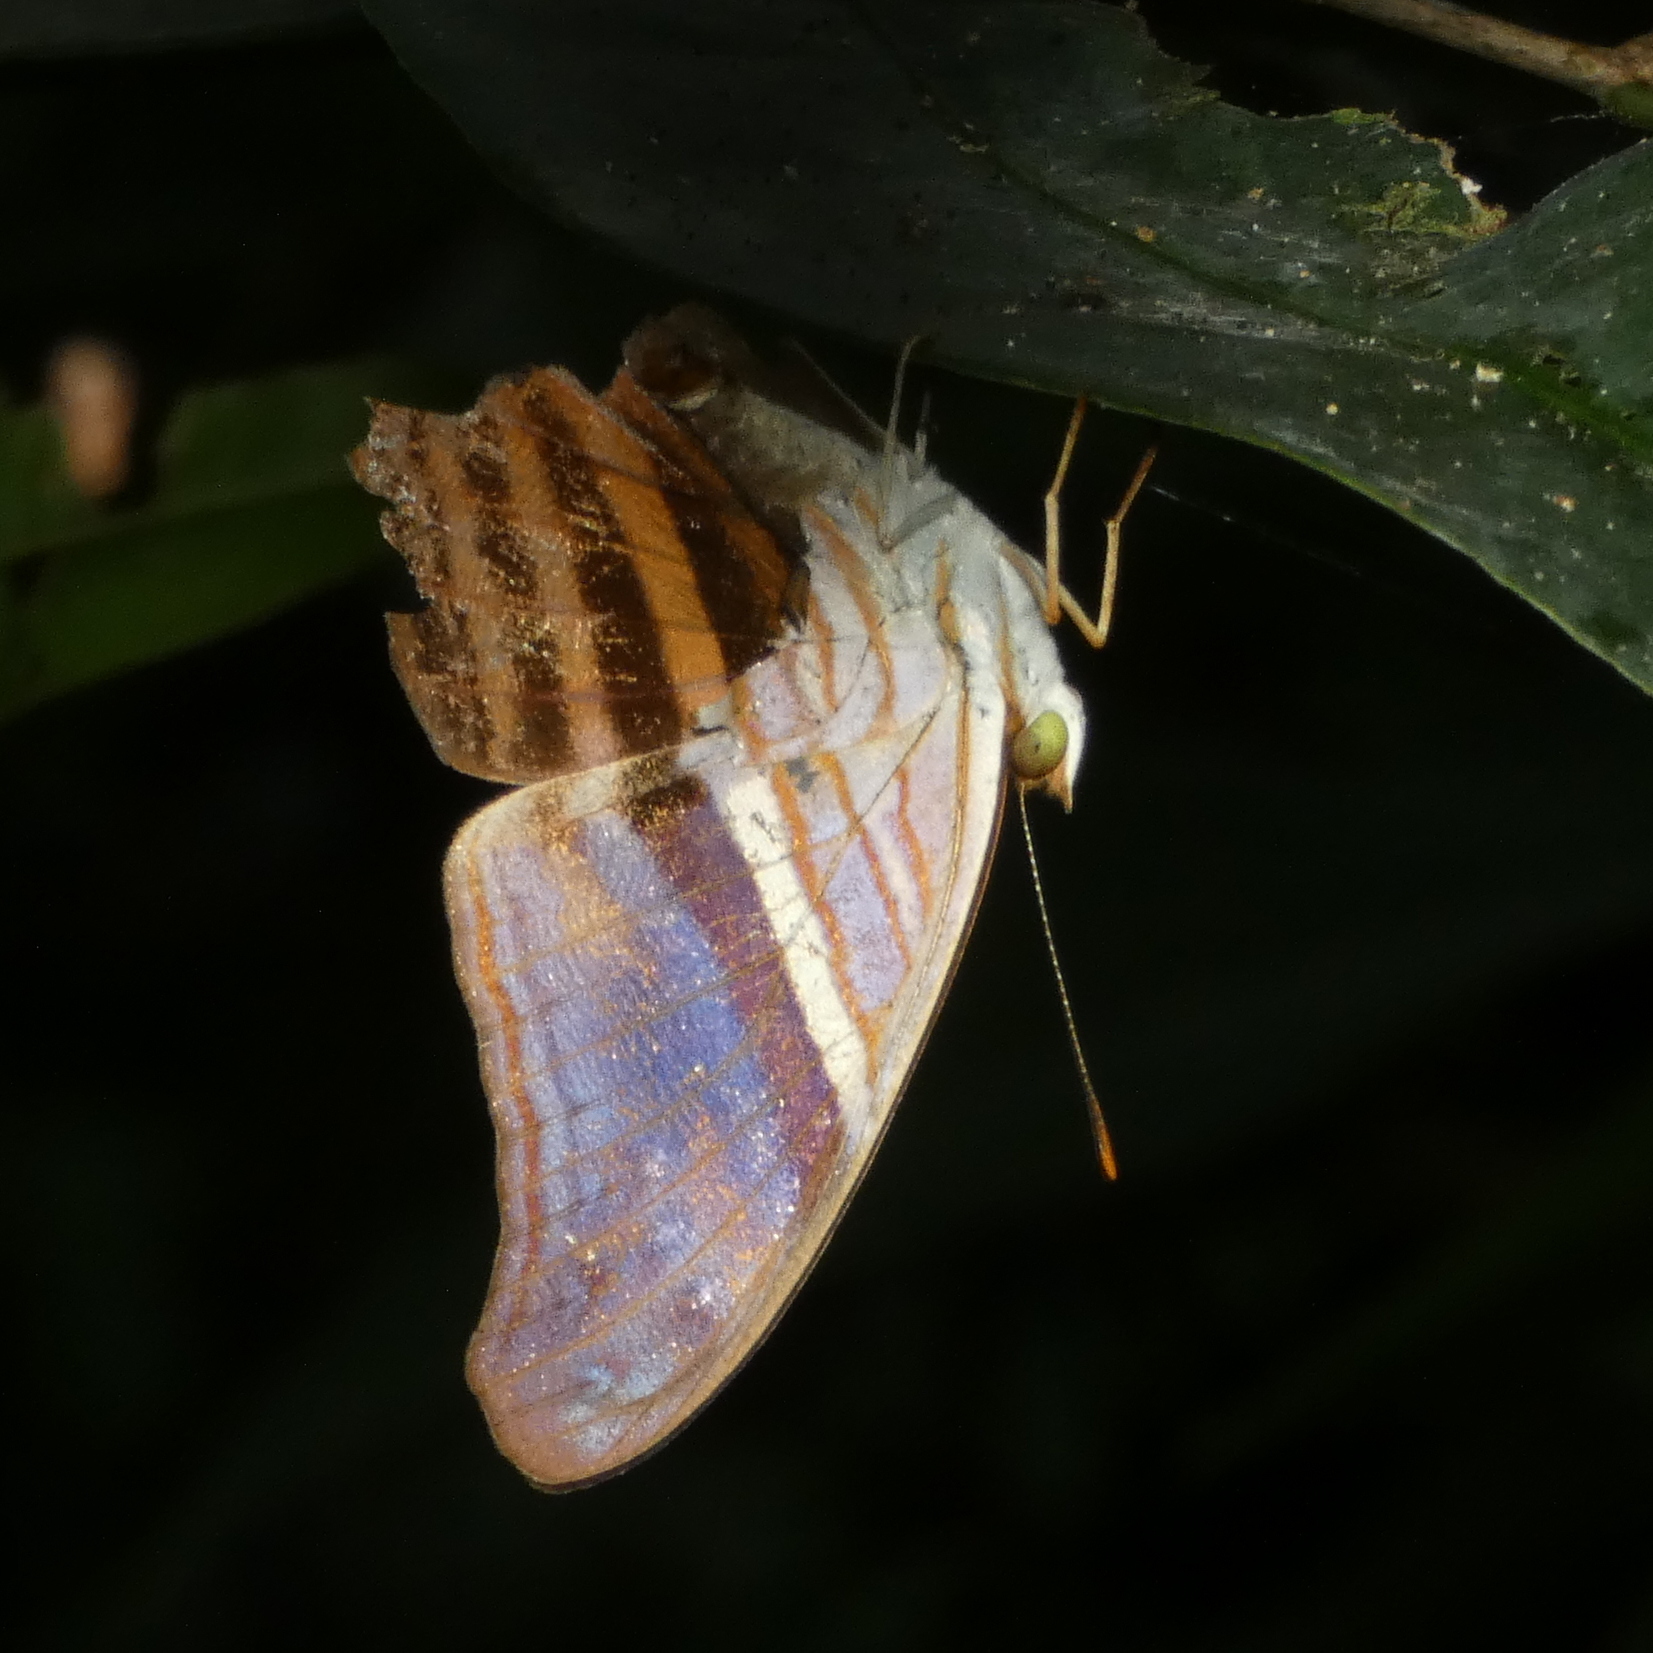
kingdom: Animalia
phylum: Arthropoda
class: Insecta
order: Lepidoptera
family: Nymphalidae
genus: Marpesia
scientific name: Marpesia chiron
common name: Many-banded daggerwing
